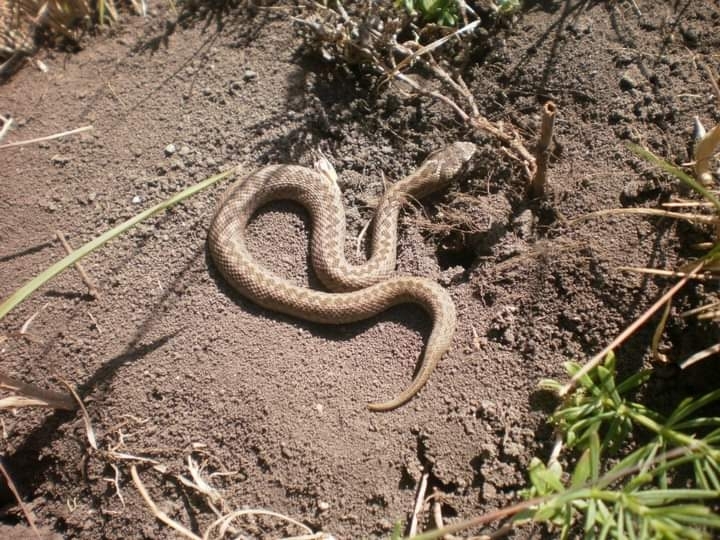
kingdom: Animalia
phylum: Chordata
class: Squamata
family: Viperidae
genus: Vipera
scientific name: Vipera renardi
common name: Eastern steppe viper
